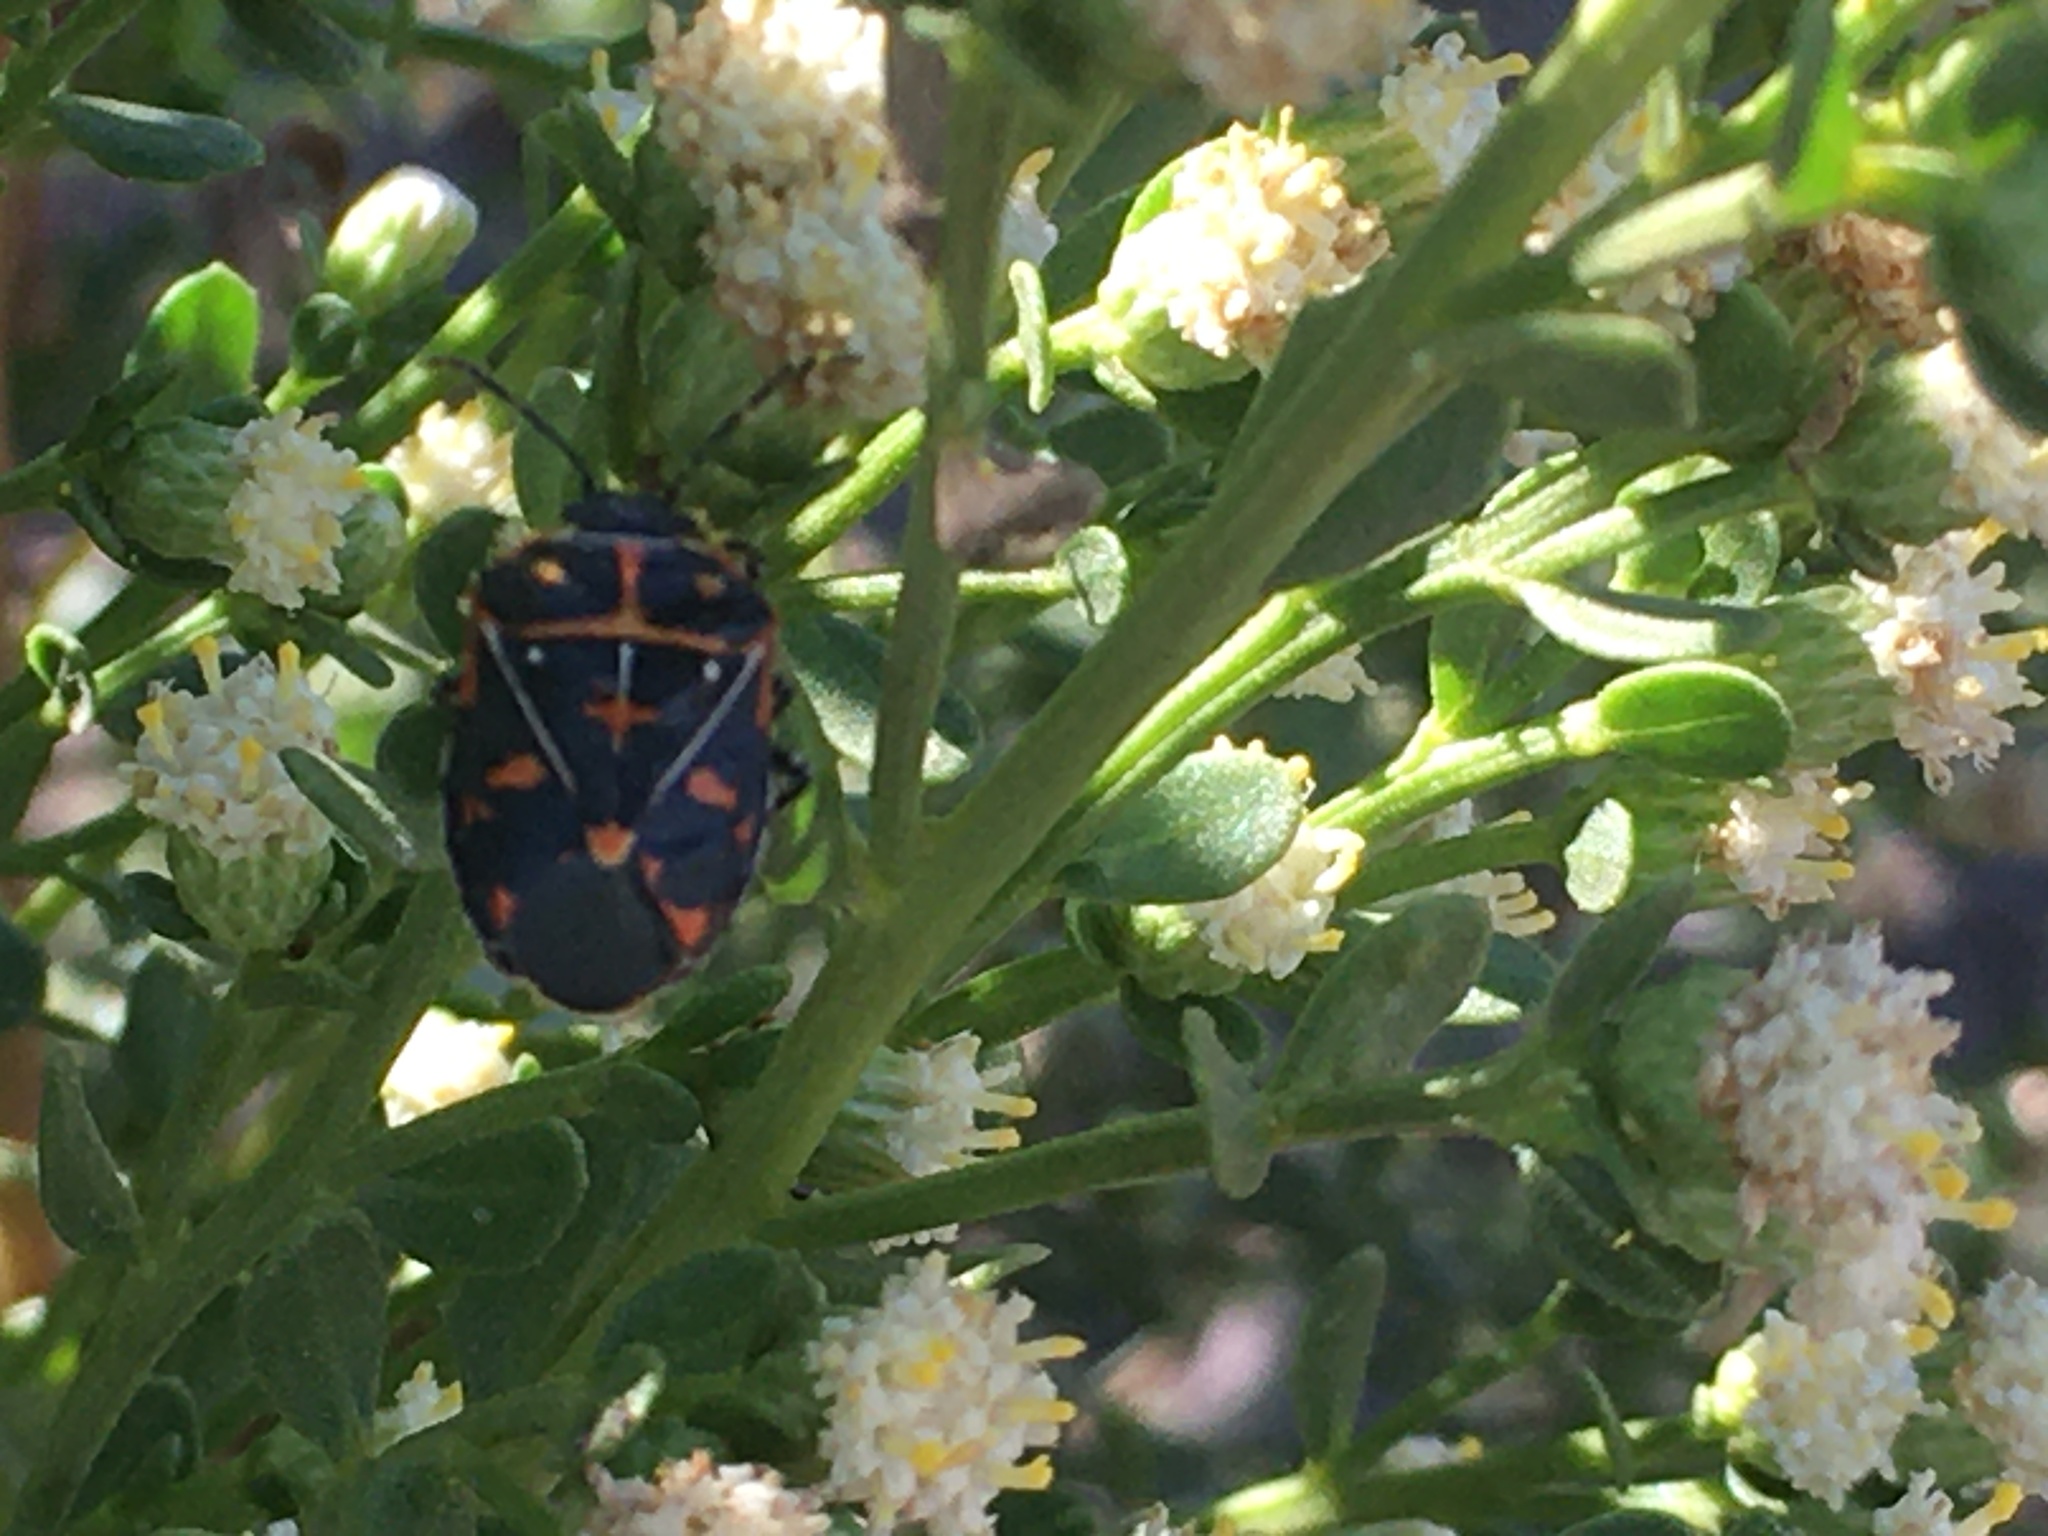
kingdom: Animalia
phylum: Arthropoda
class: Insecta
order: Hemiptera
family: Pentatomidae
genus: Murgantia
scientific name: Murgantia histrionica
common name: Harlequin bug
